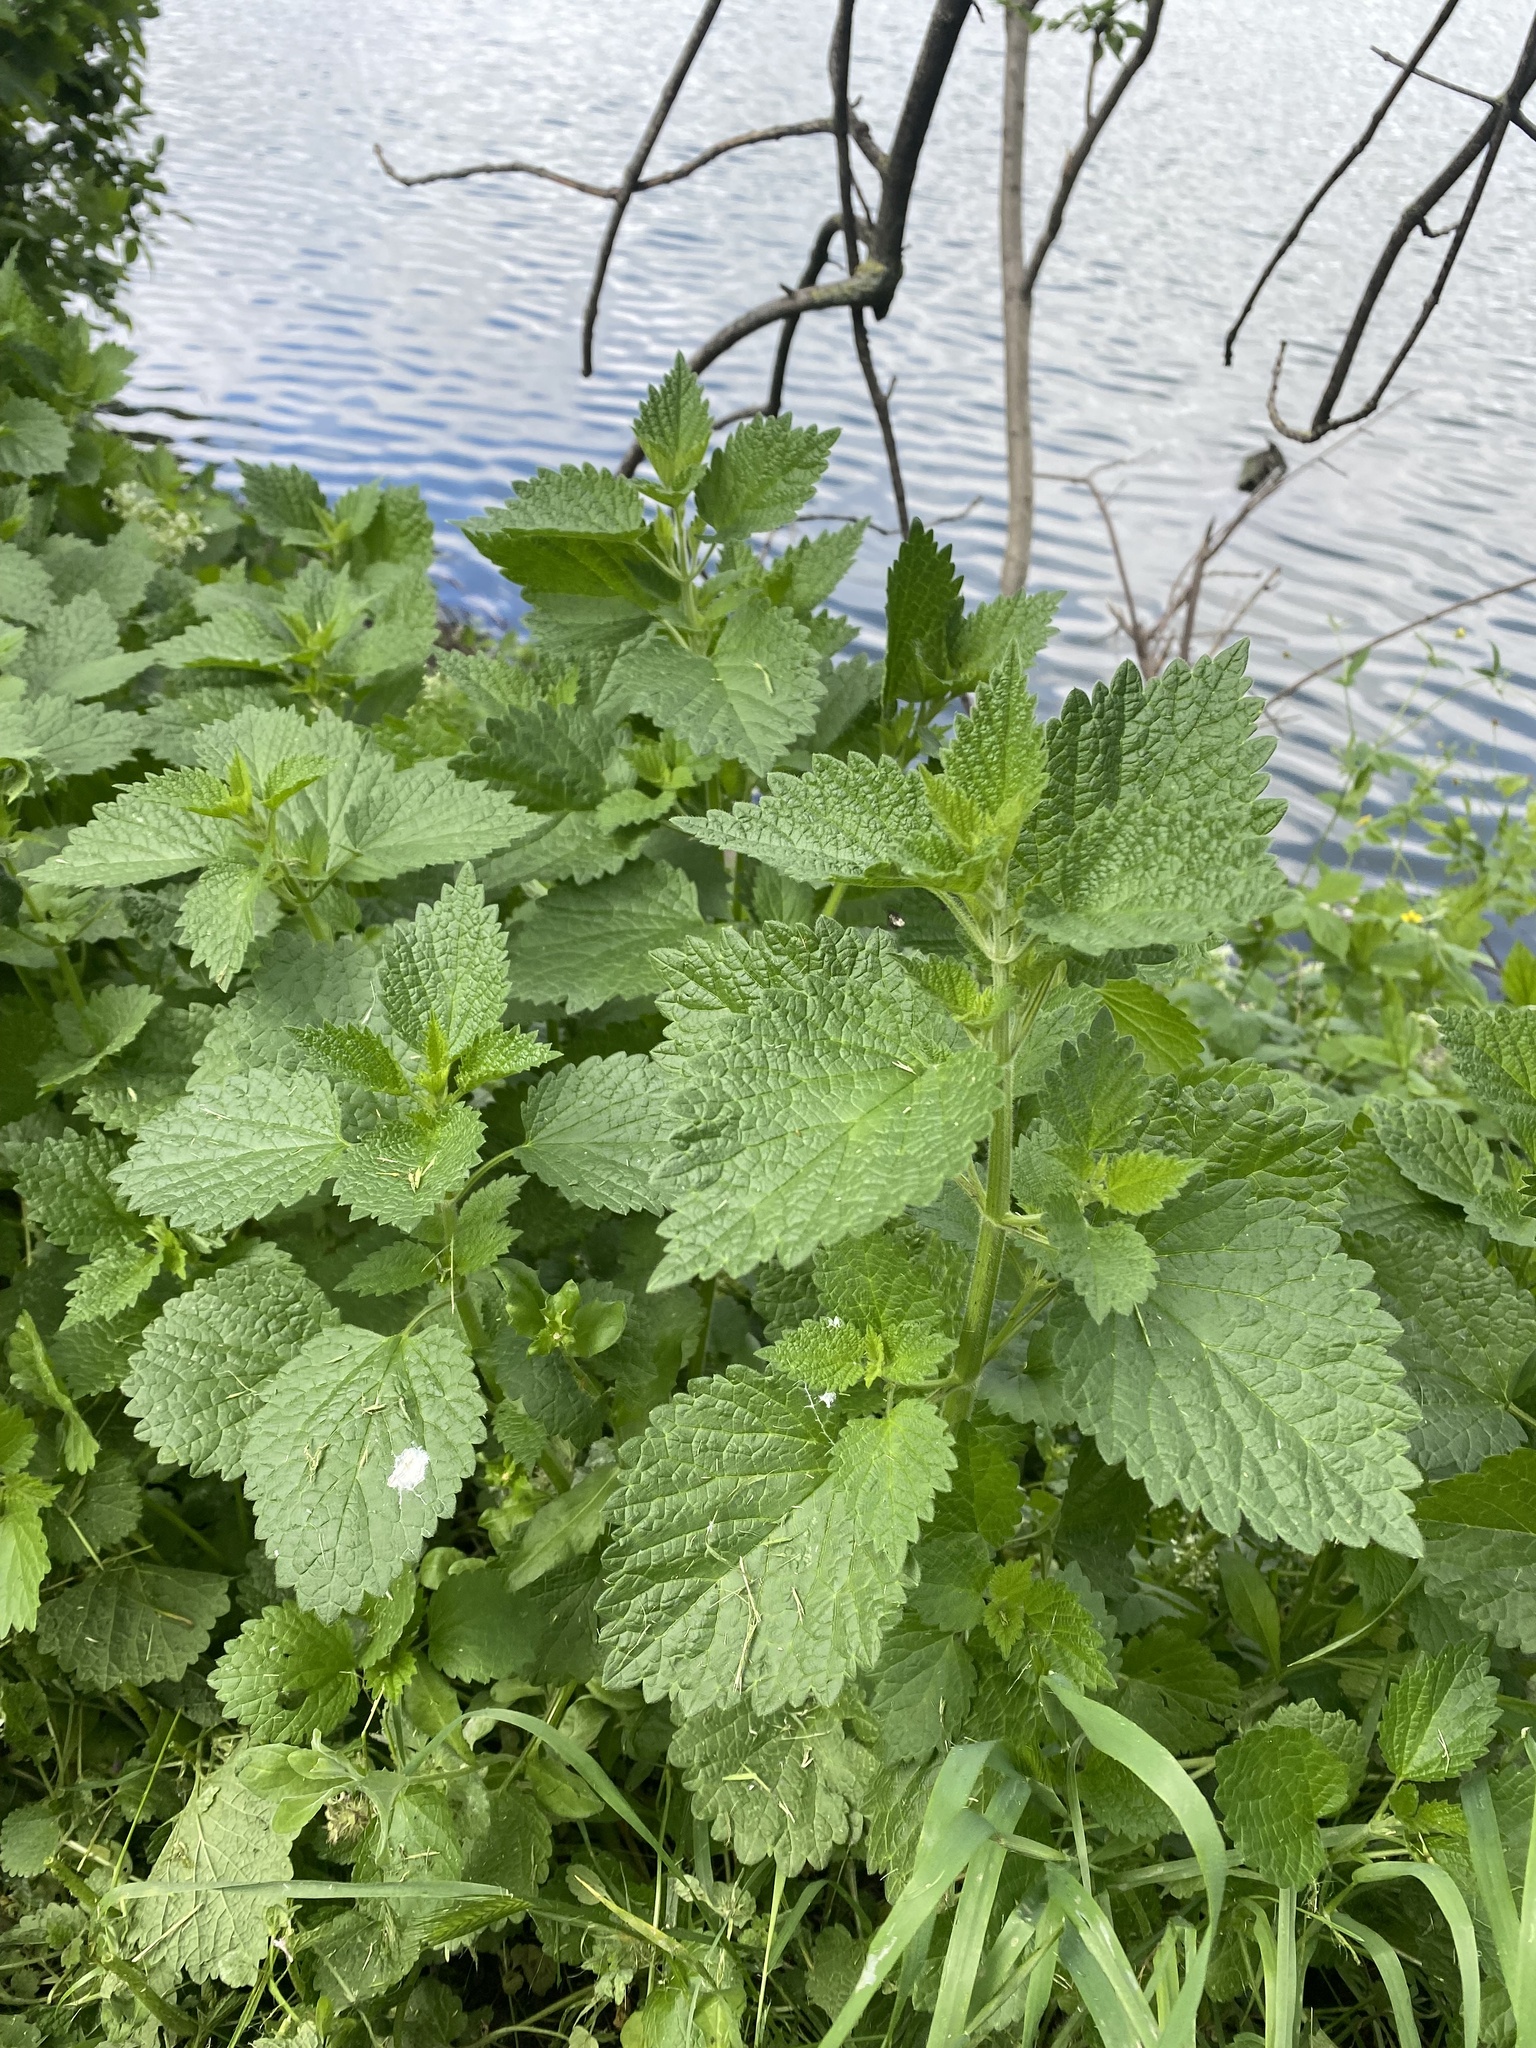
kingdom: Plantae
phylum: Tracheophyta
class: Magnoliopsida
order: Lamiales
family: Lamiaceae
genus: Ballota
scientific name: Ballota nigra
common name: Black horehound
